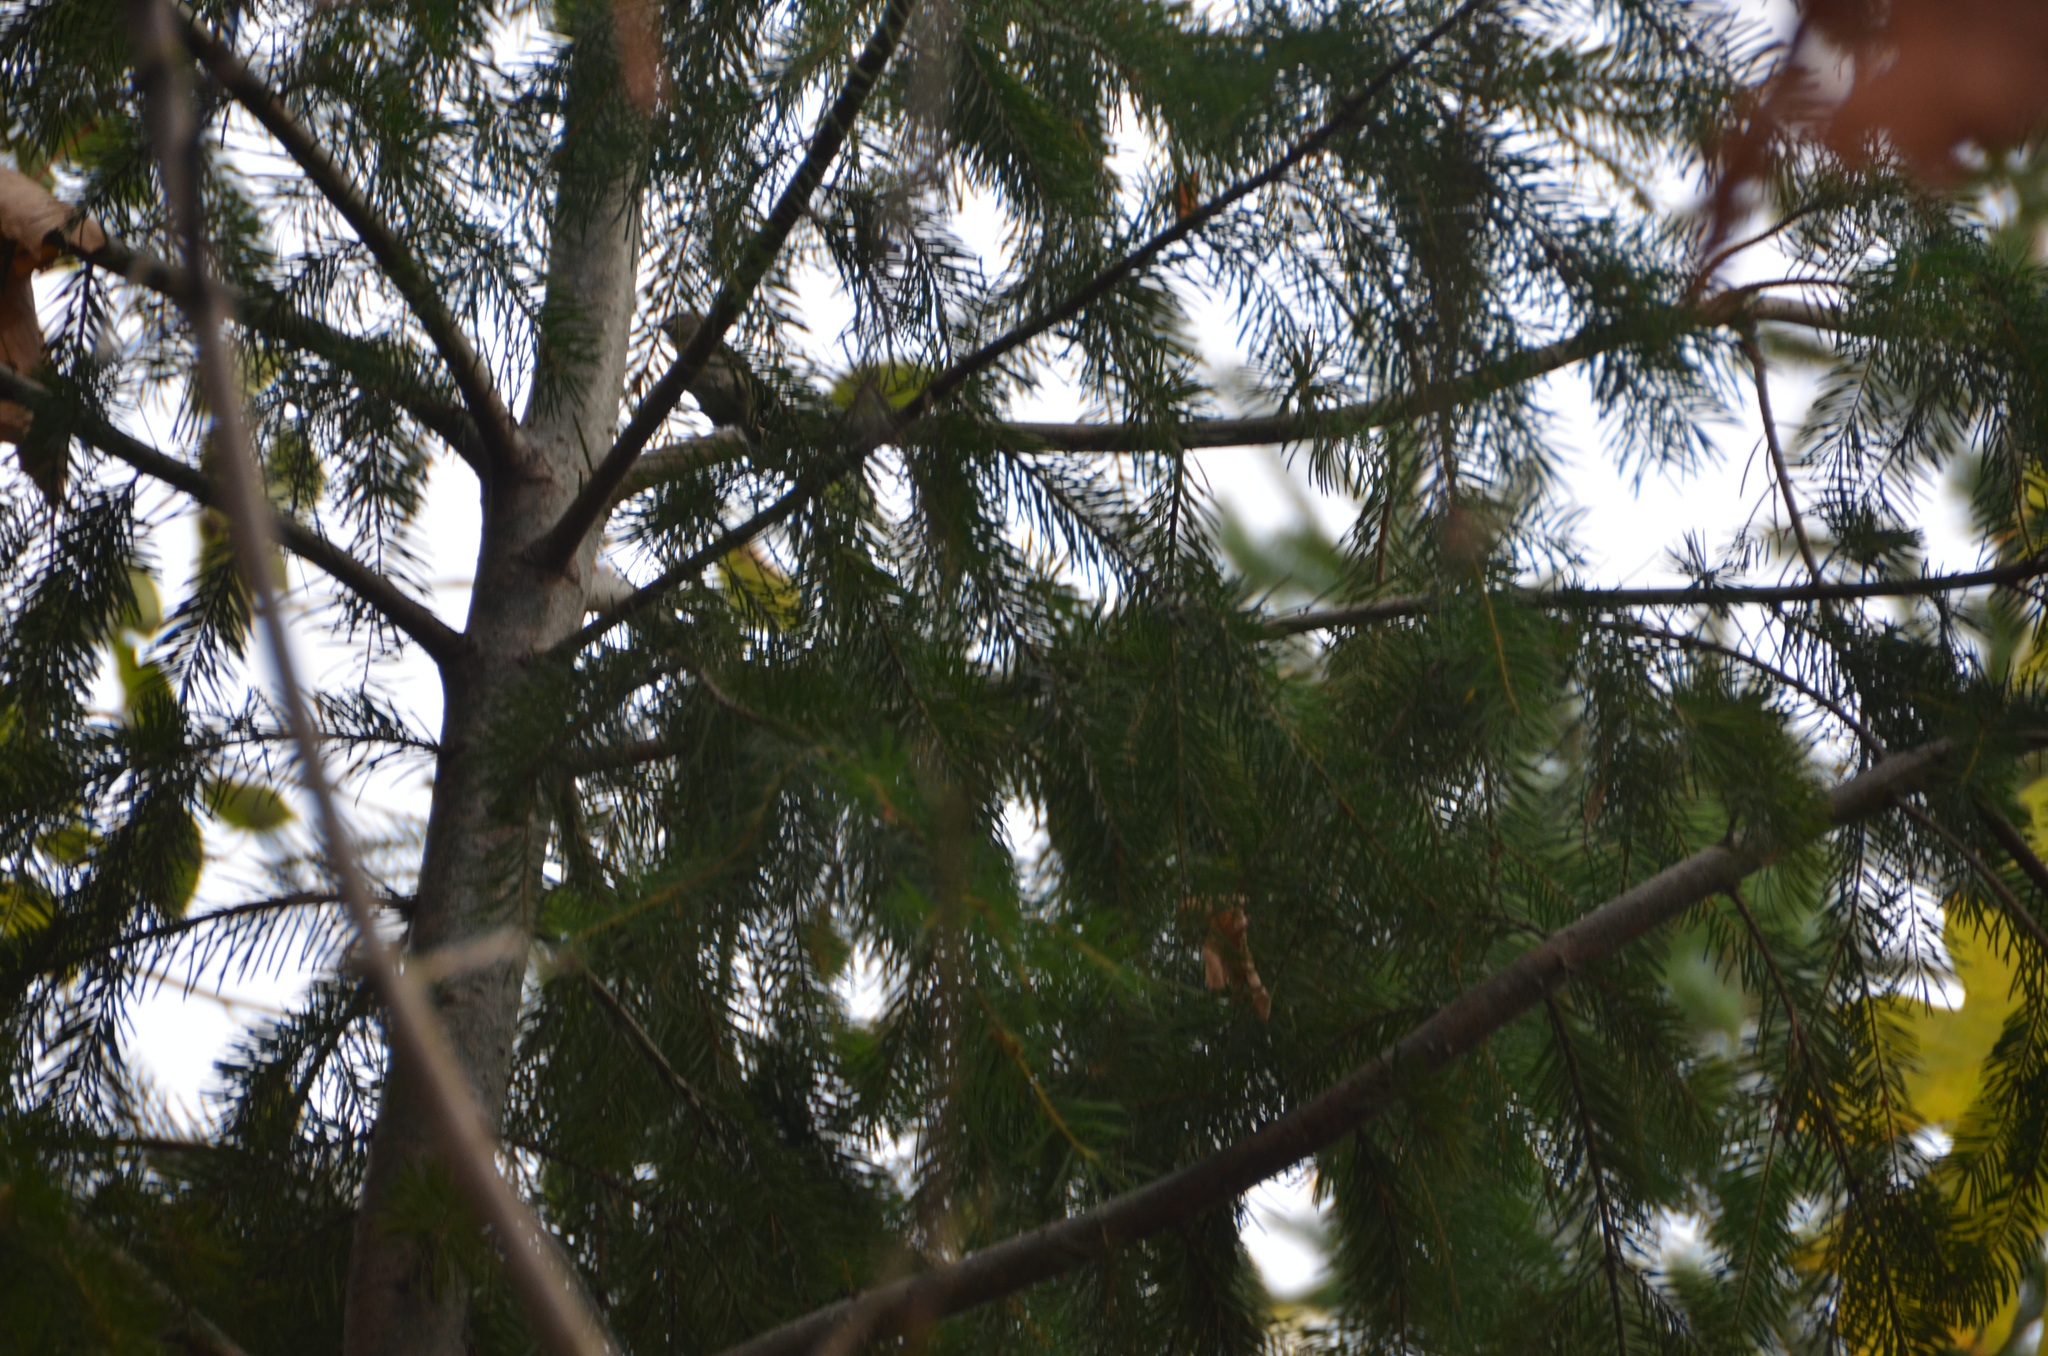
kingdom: Animalia
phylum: Chordata
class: Aves
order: Passeriformes
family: Regulidae
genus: Regulus
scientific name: Regulus satrapa
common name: Golden-crowned kinglet
